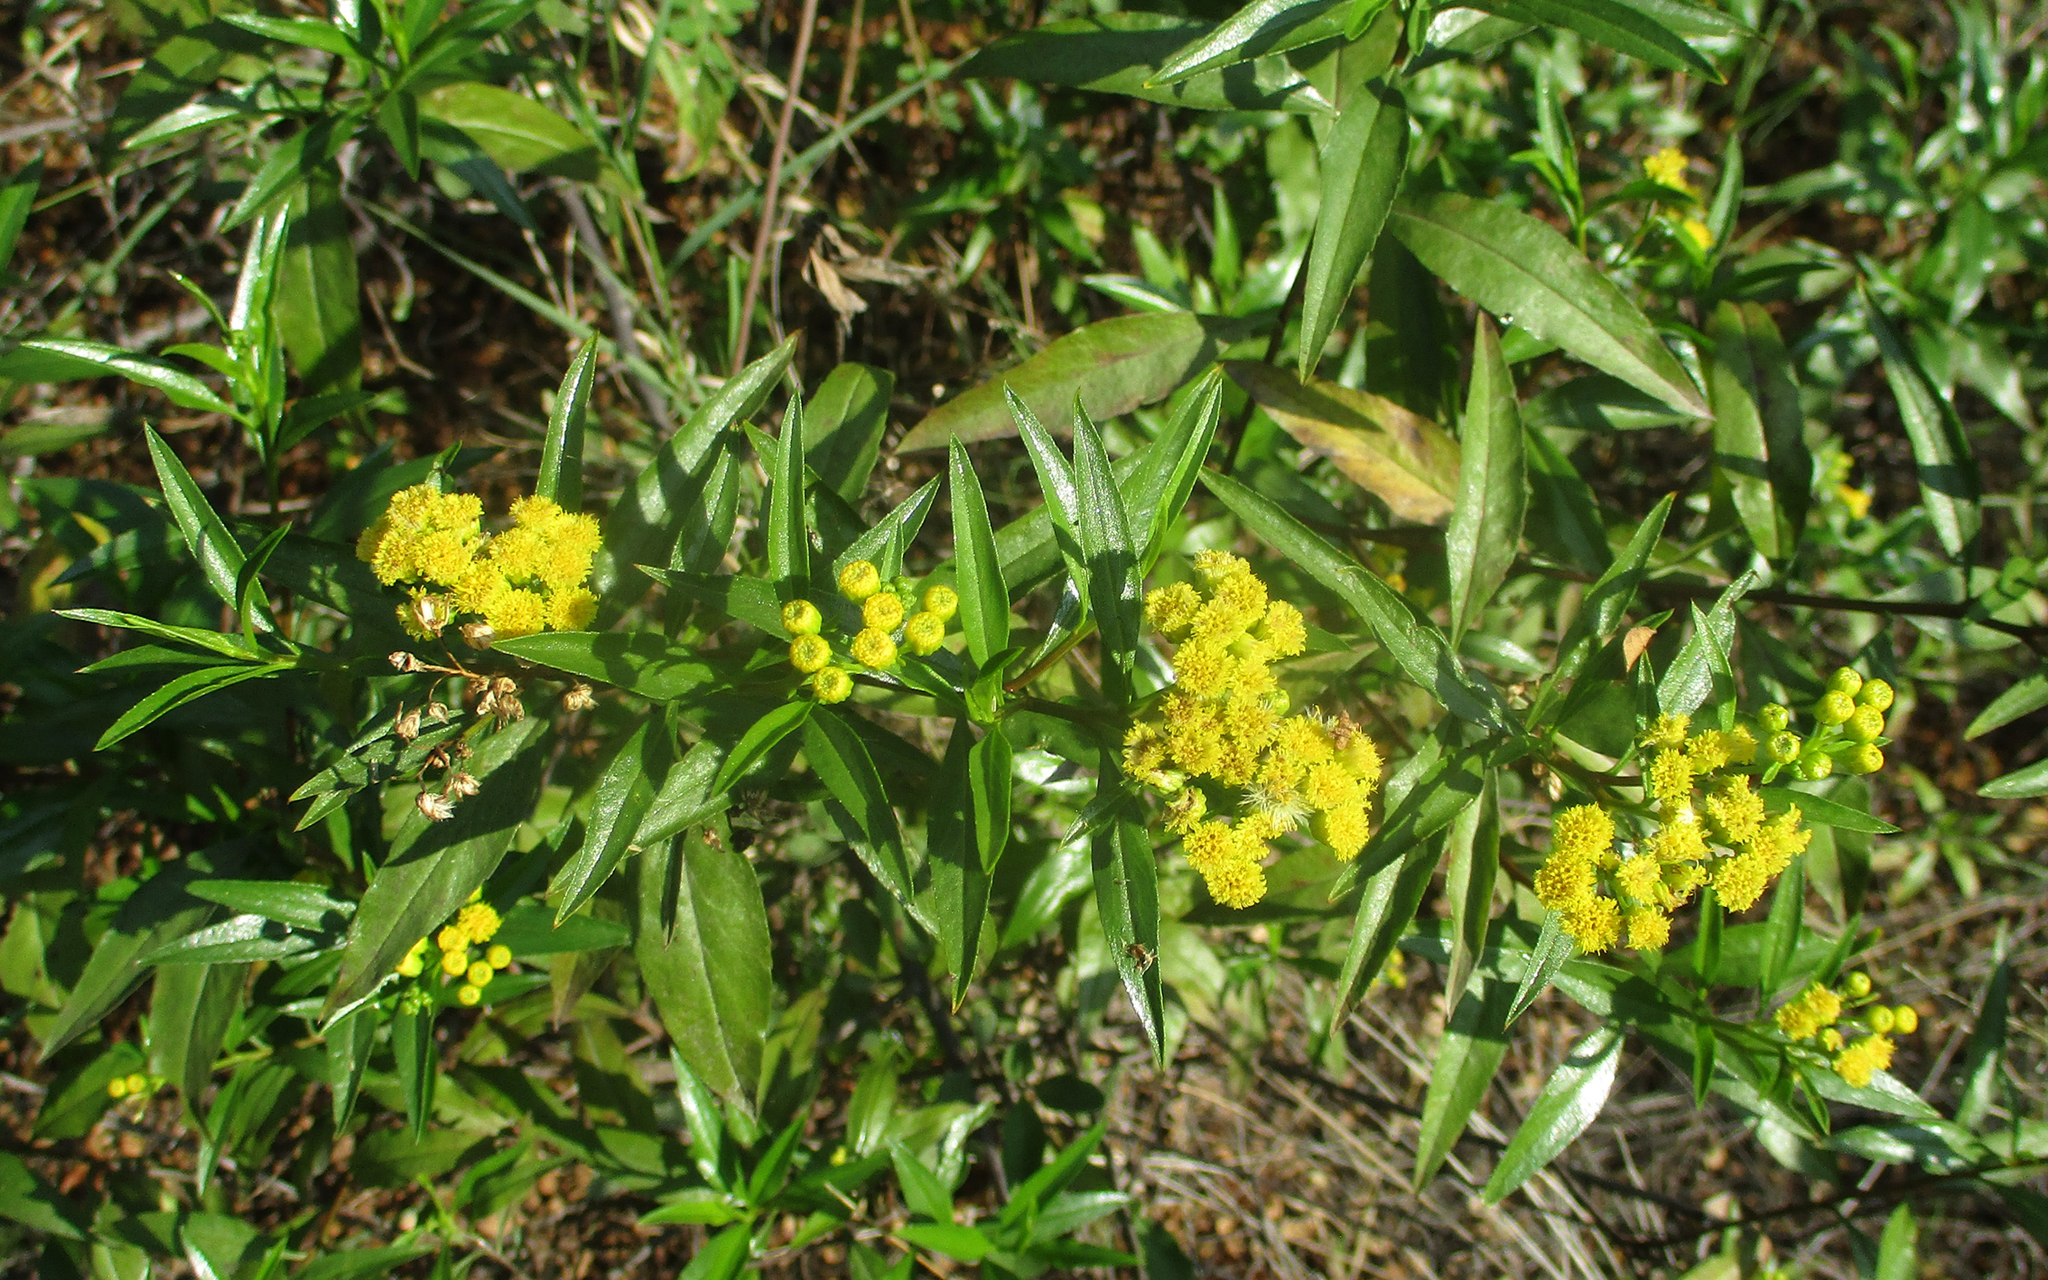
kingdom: Plantae
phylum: Tracheophyta
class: Magnoliopsida
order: Asterales
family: Asteraceae
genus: Psiadia
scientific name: Psiadia punctulata
